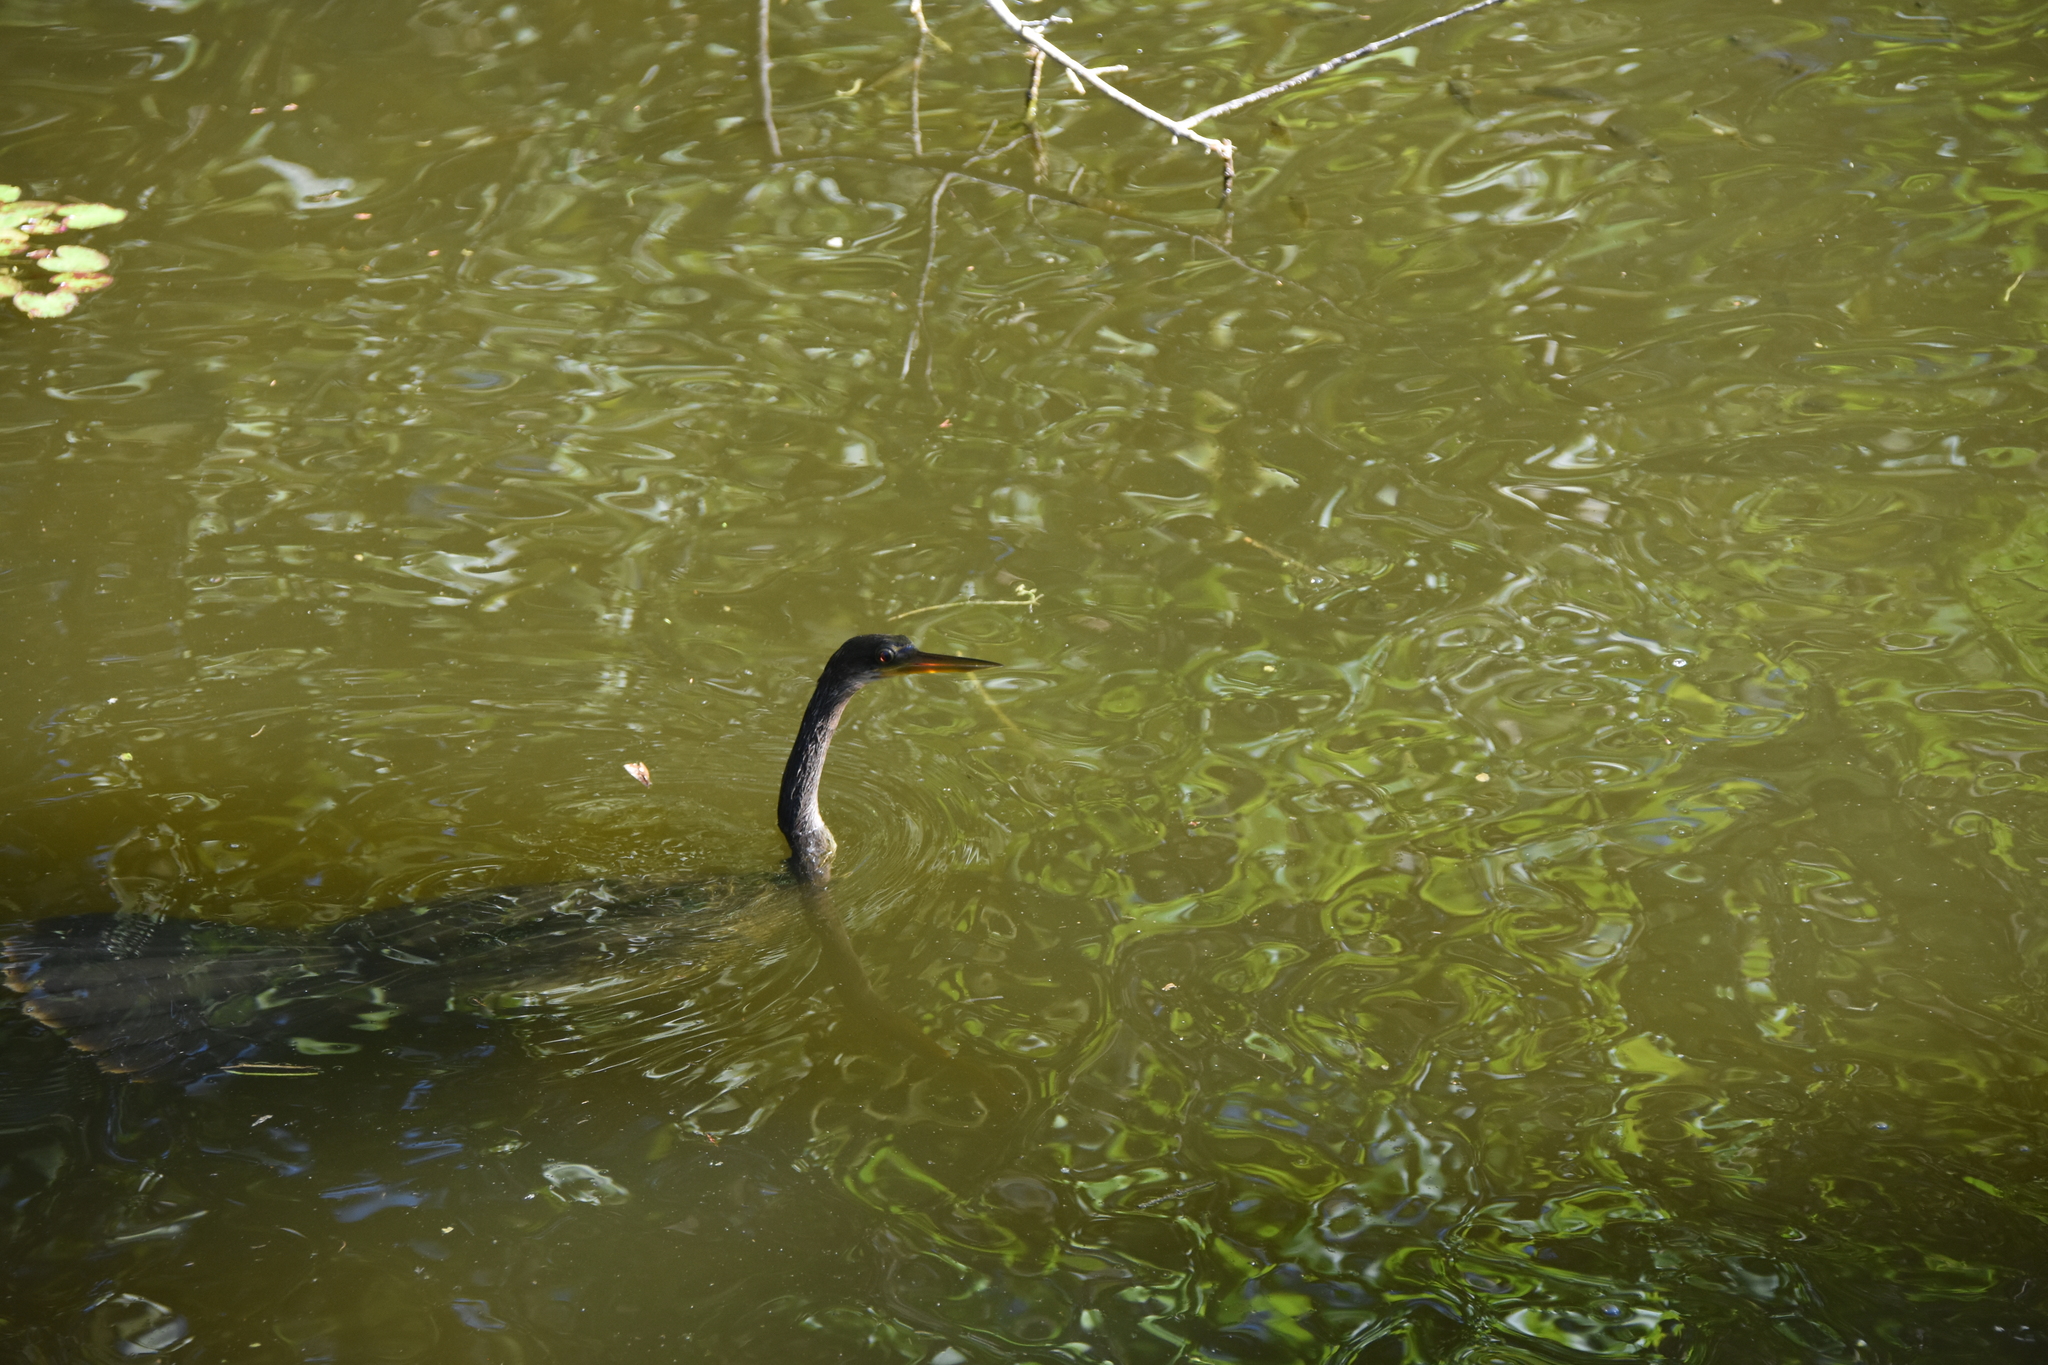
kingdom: Animalia
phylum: Chordata
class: Aves
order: Suliformes
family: Anhingidae
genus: Anhinga
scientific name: Anhinga anhinga
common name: Anhinga
